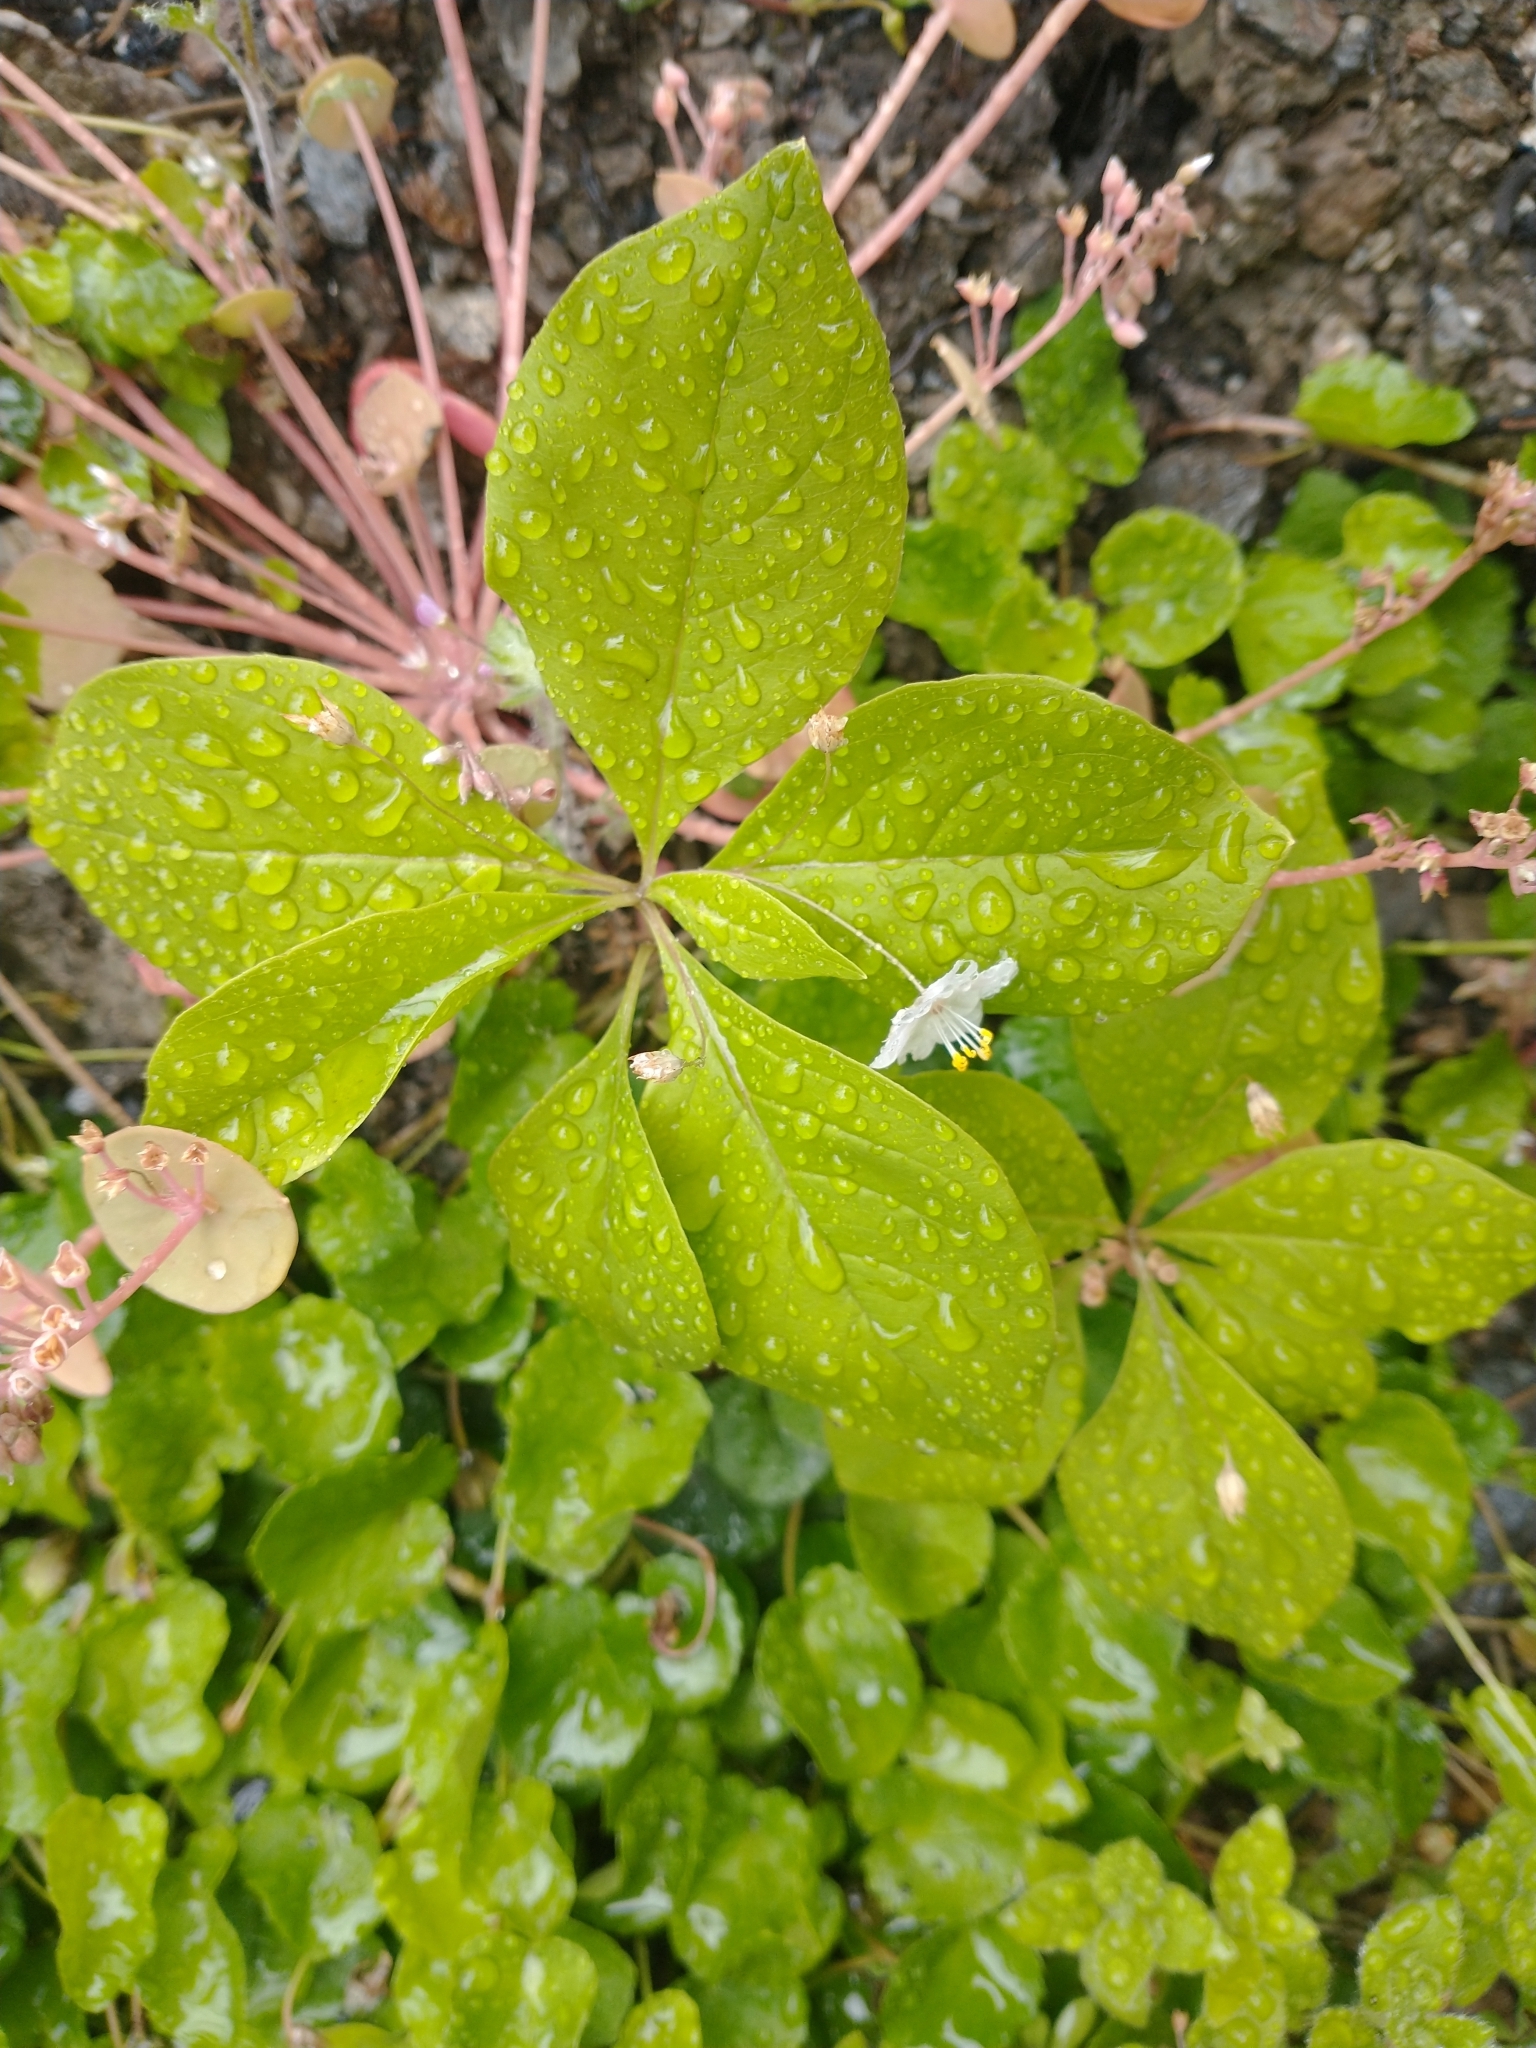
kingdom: Plantae
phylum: Tracheophyta
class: Magnoliopsida
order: Ericales
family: Primulaceae
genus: Lysimachia
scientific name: Lysimachia latifolia
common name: Pacific starflower
